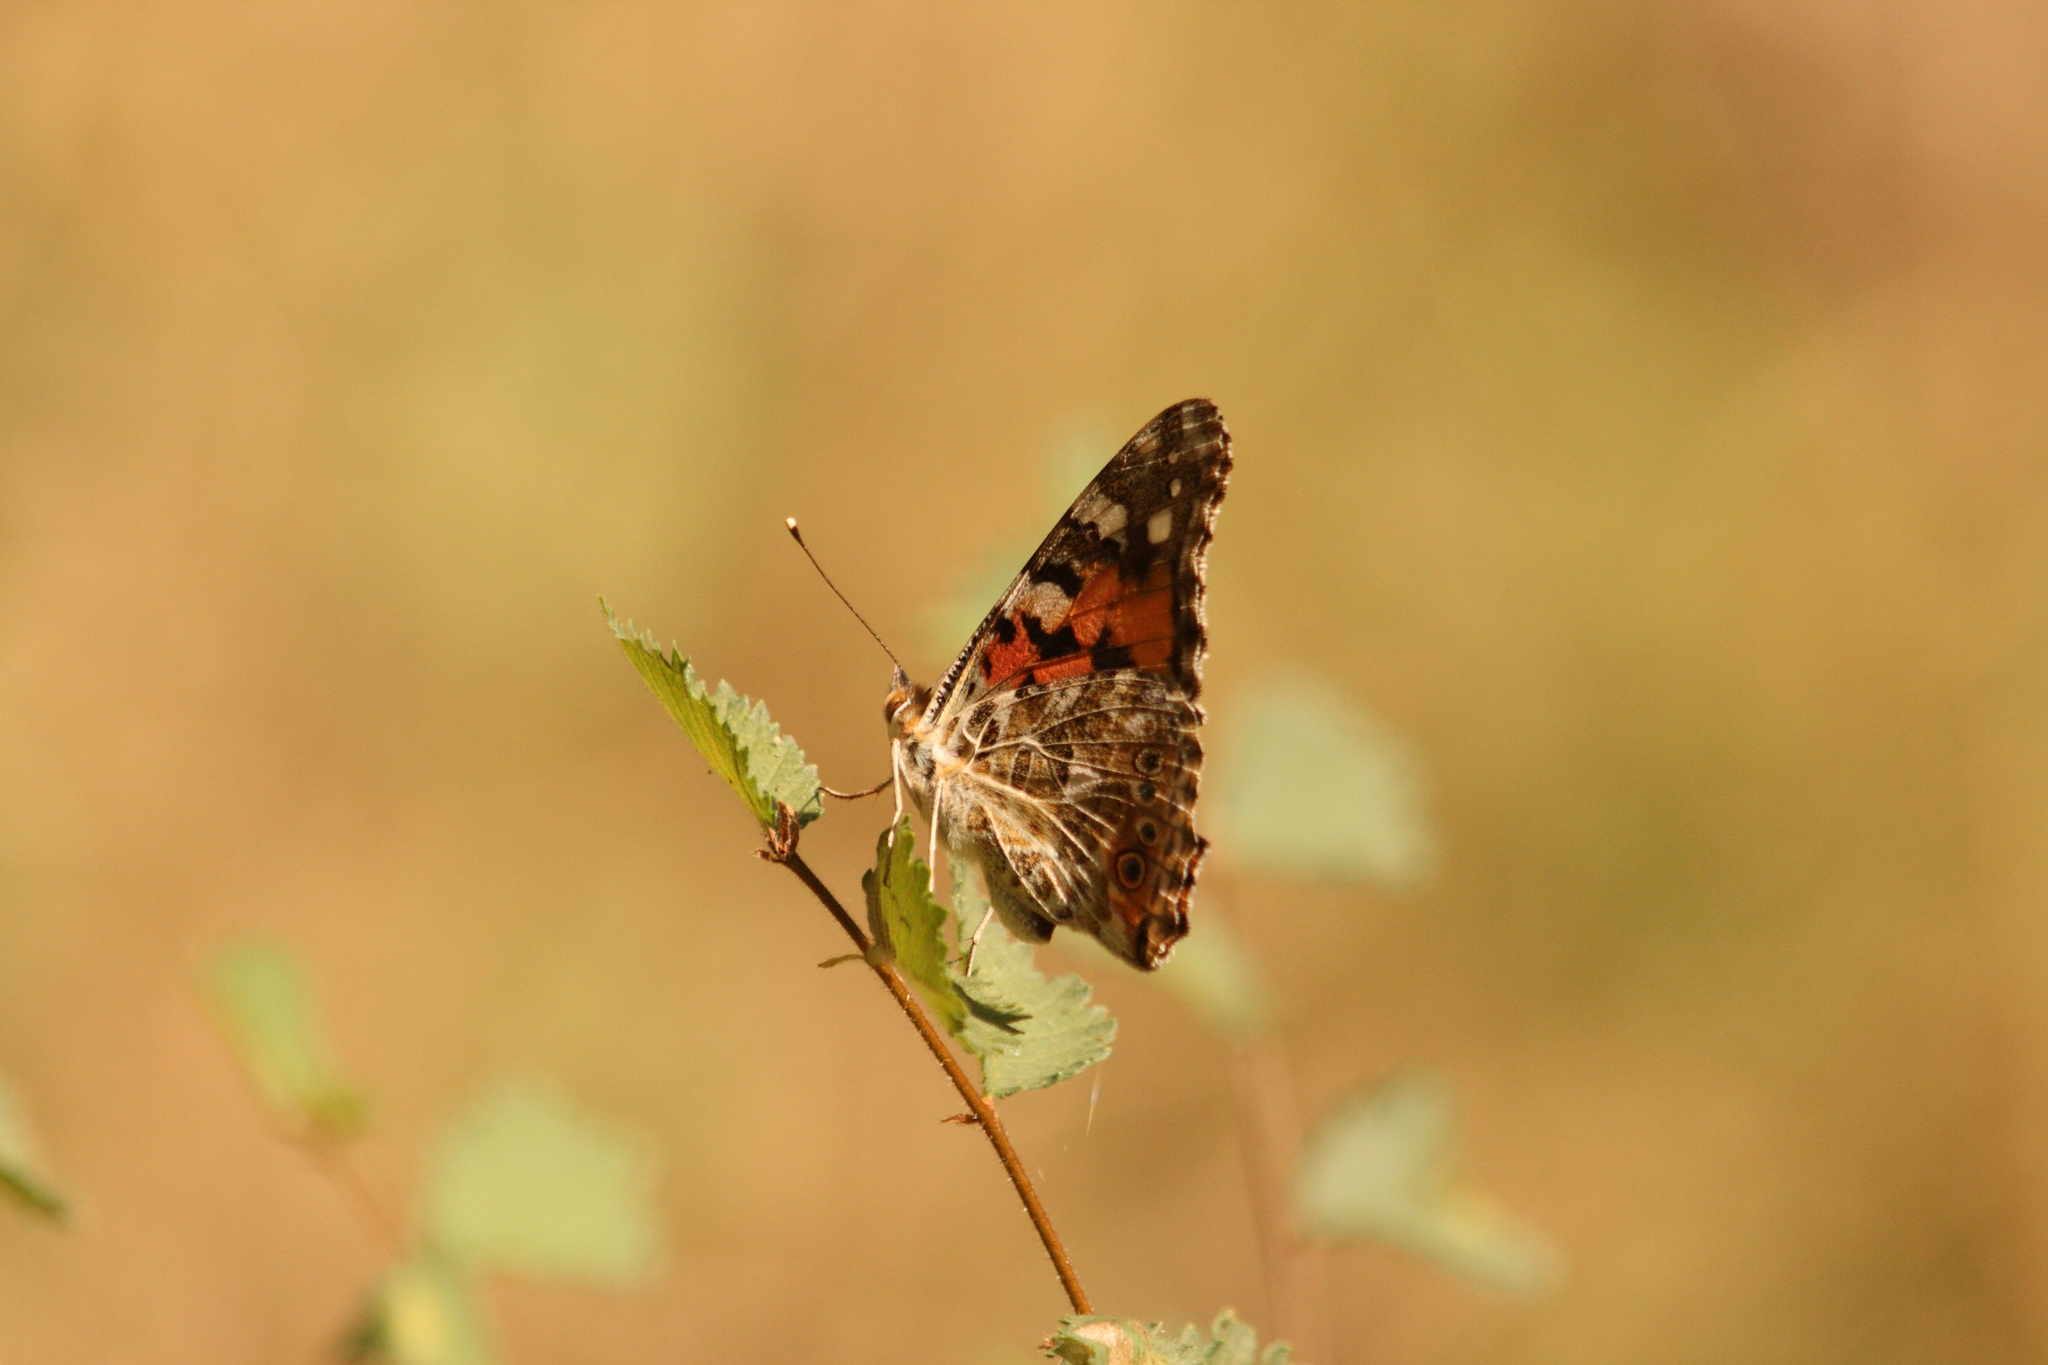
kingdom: Animalia
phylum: Arthropoda
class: Insecta
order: Lepidoptera
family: Nymphalidae
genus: Vanessa
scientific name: Vanessa cardui
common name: Painted lady
